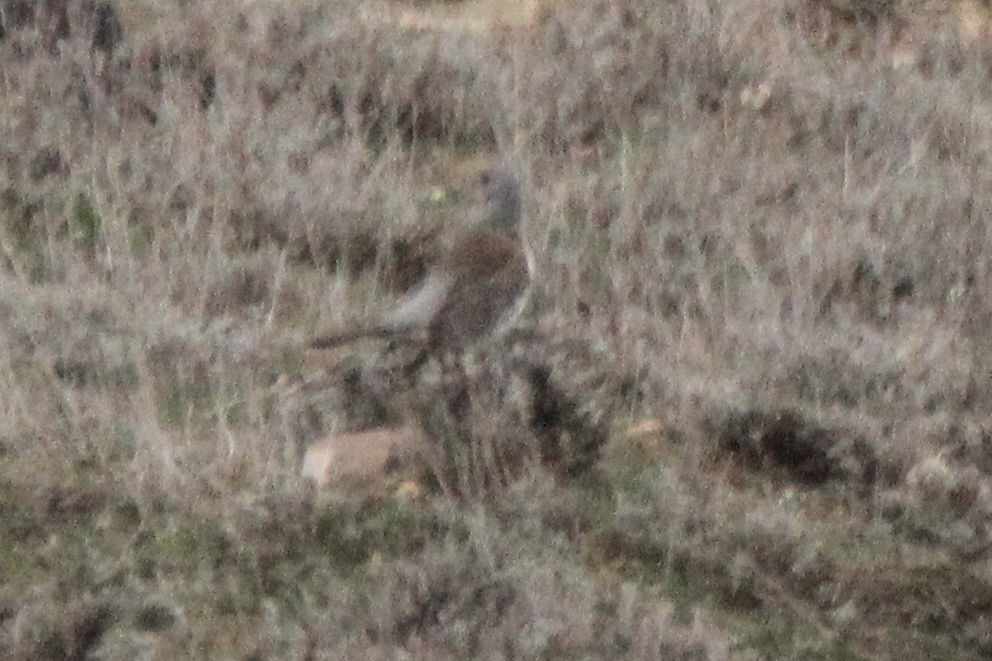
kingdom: Animalia
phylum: Chordata
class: Aves
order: Passeriformes
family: Turdidae
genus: Turdus
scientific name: Turdus pilaris
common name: Fieldfare
